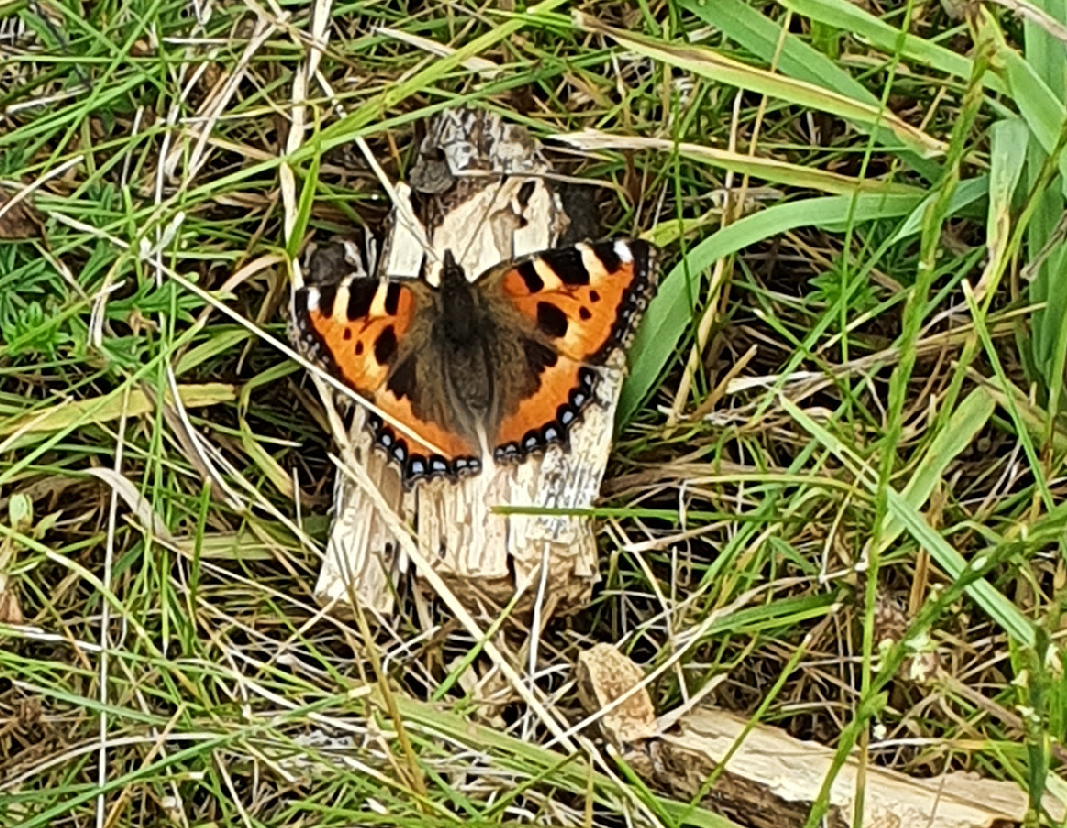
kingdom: Animalia
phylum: Arthropoda
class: Insecta
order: Lepidoptera
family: Nymphalidae
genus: Aglais
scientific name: Aglais urticae
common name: Small tortoiseshell
